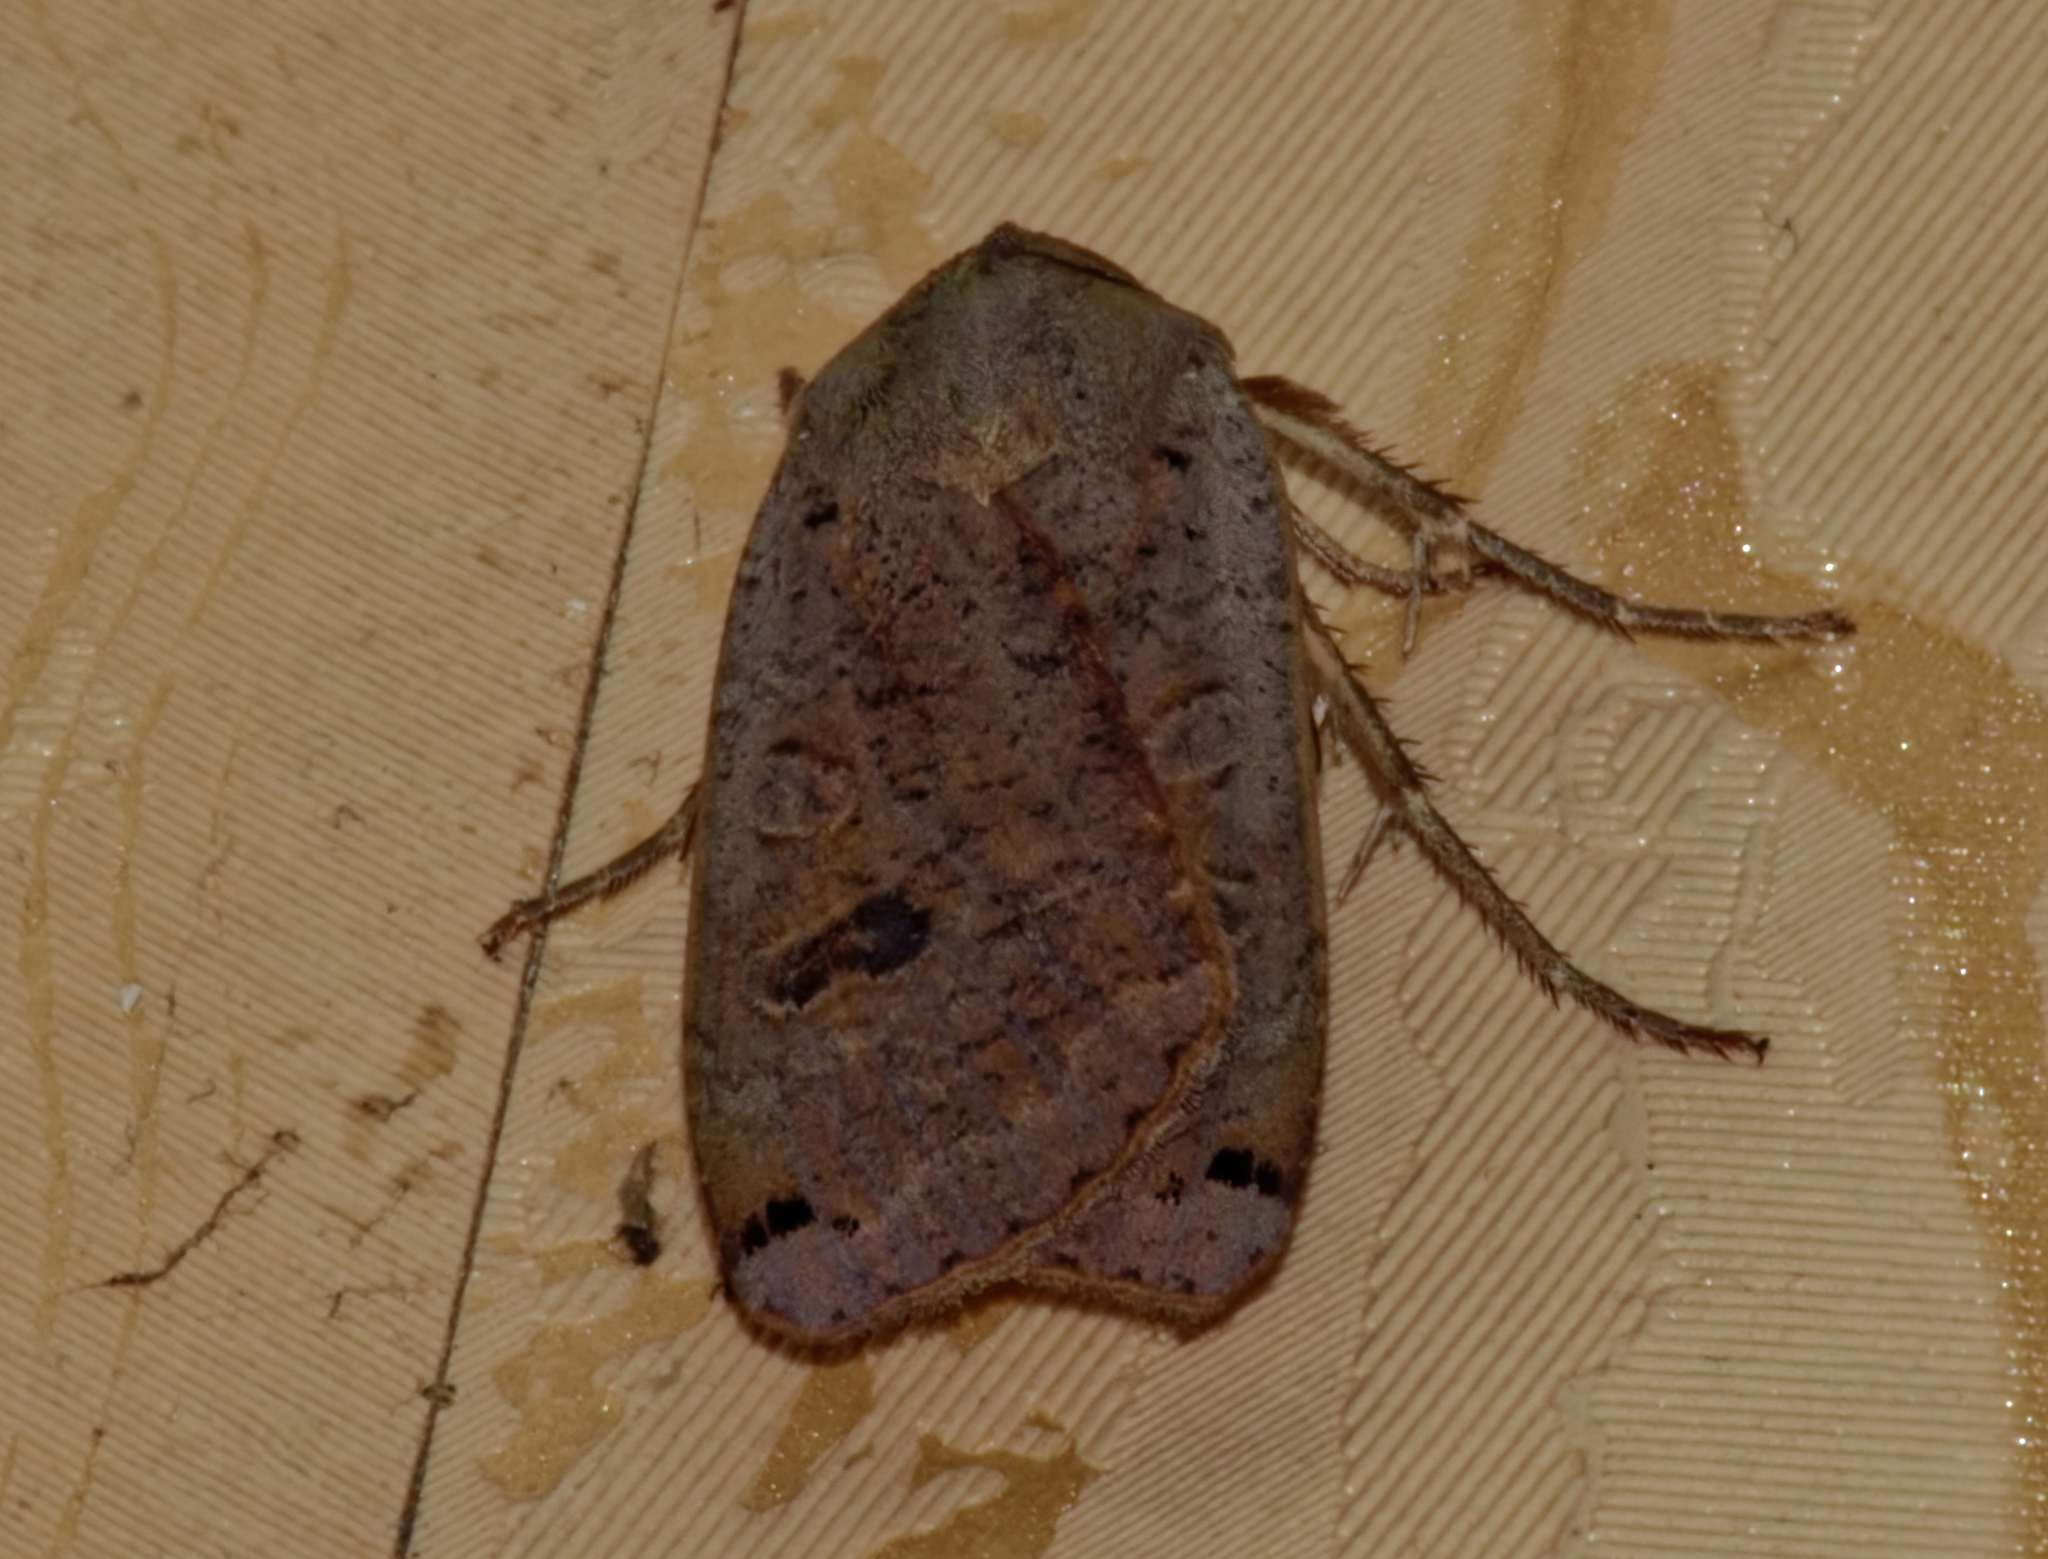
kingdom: Animalia
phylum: Arthropoda
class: Insecta
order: Lepidoptera
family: Noctuidae
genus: Noctua
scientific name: Noctua pronuba
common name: Large yellow underwing
